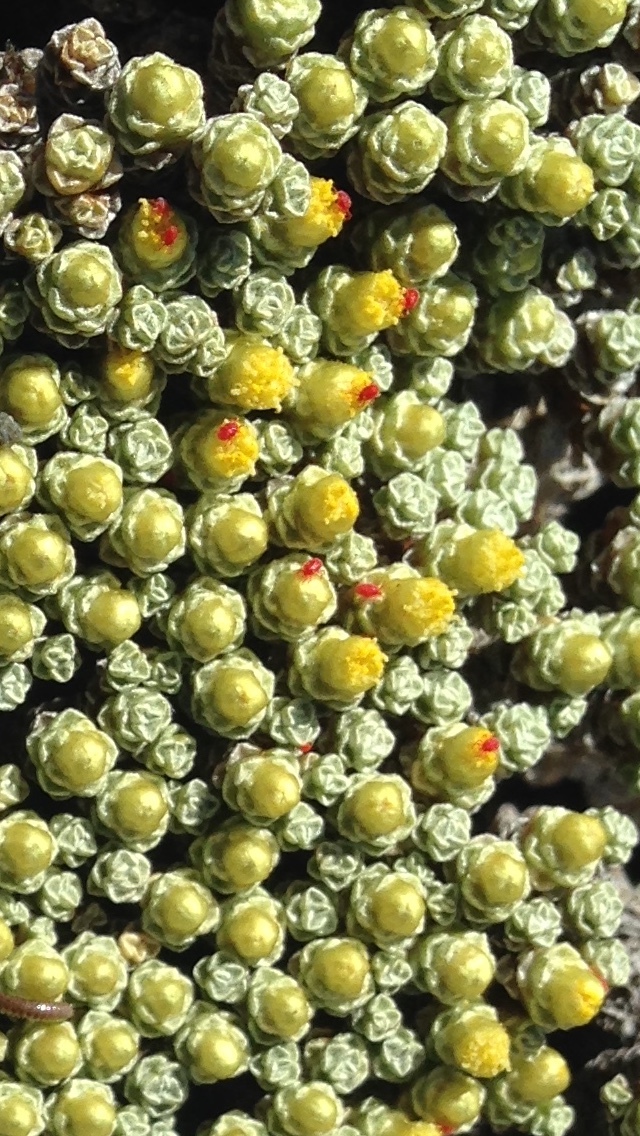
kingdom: Plantae
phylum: Tracheophyta
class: Magnoliopsida
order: Asterales
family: Asteraceae
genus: Raoulia
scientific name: Raoulia australis
